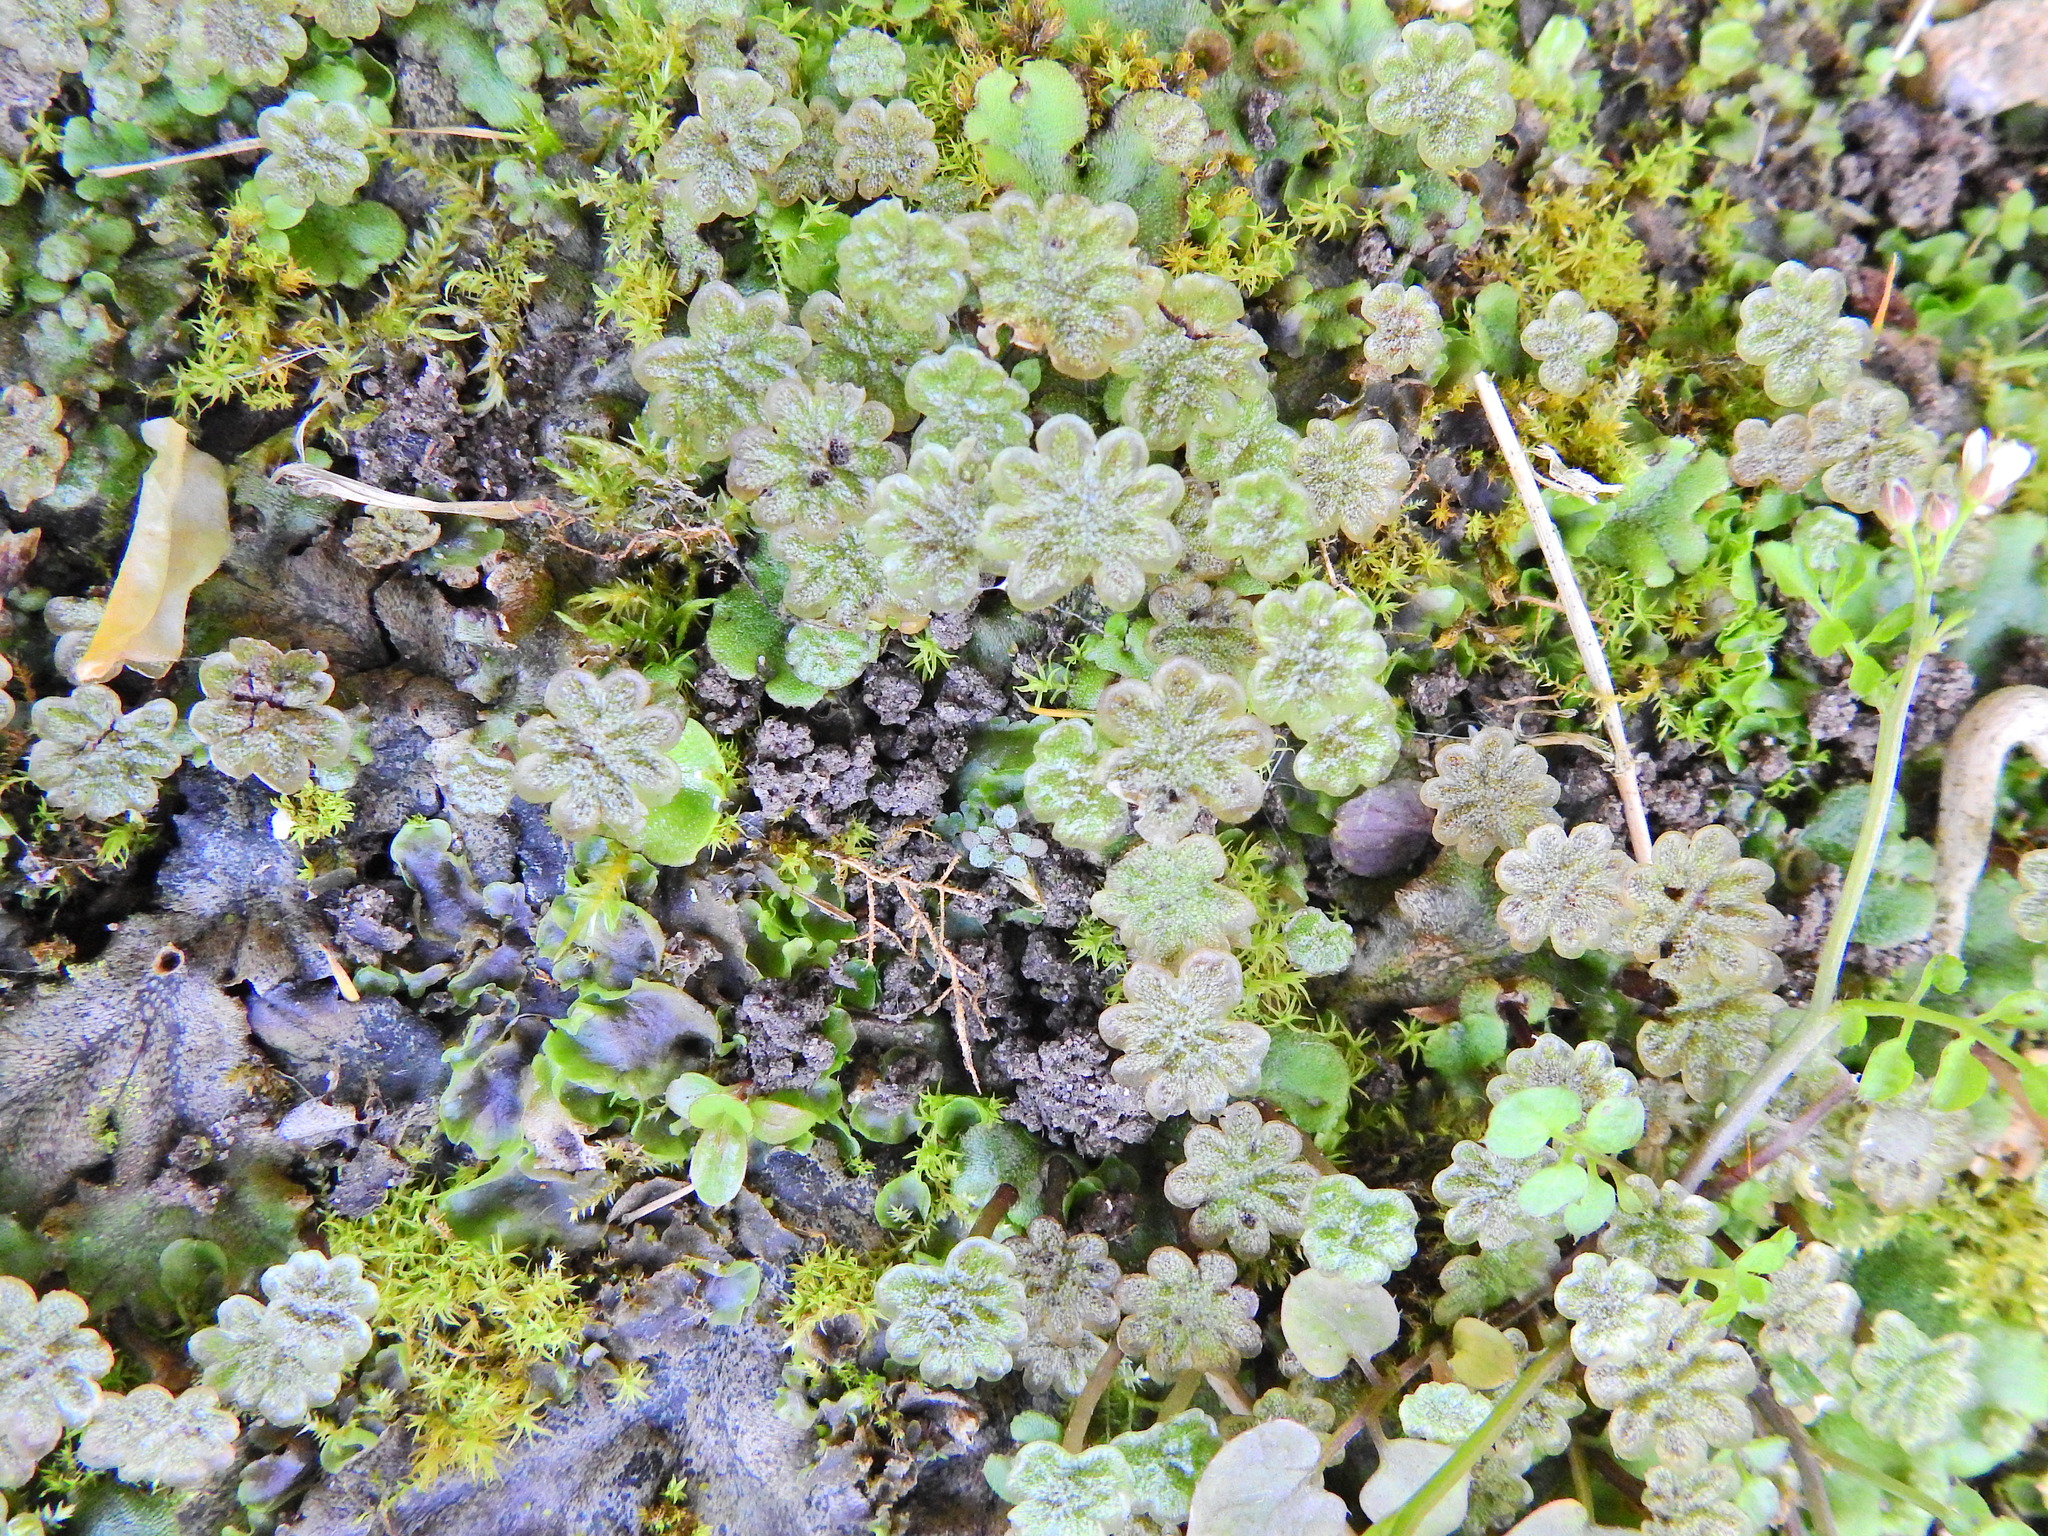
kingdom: Plantae
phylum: Marchantiophyta
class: Marchantiopsida
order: Marchantiales
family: Marchantiaceae
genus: Marchantia
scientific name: Marchantia polymorpha
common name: Common liverwort
